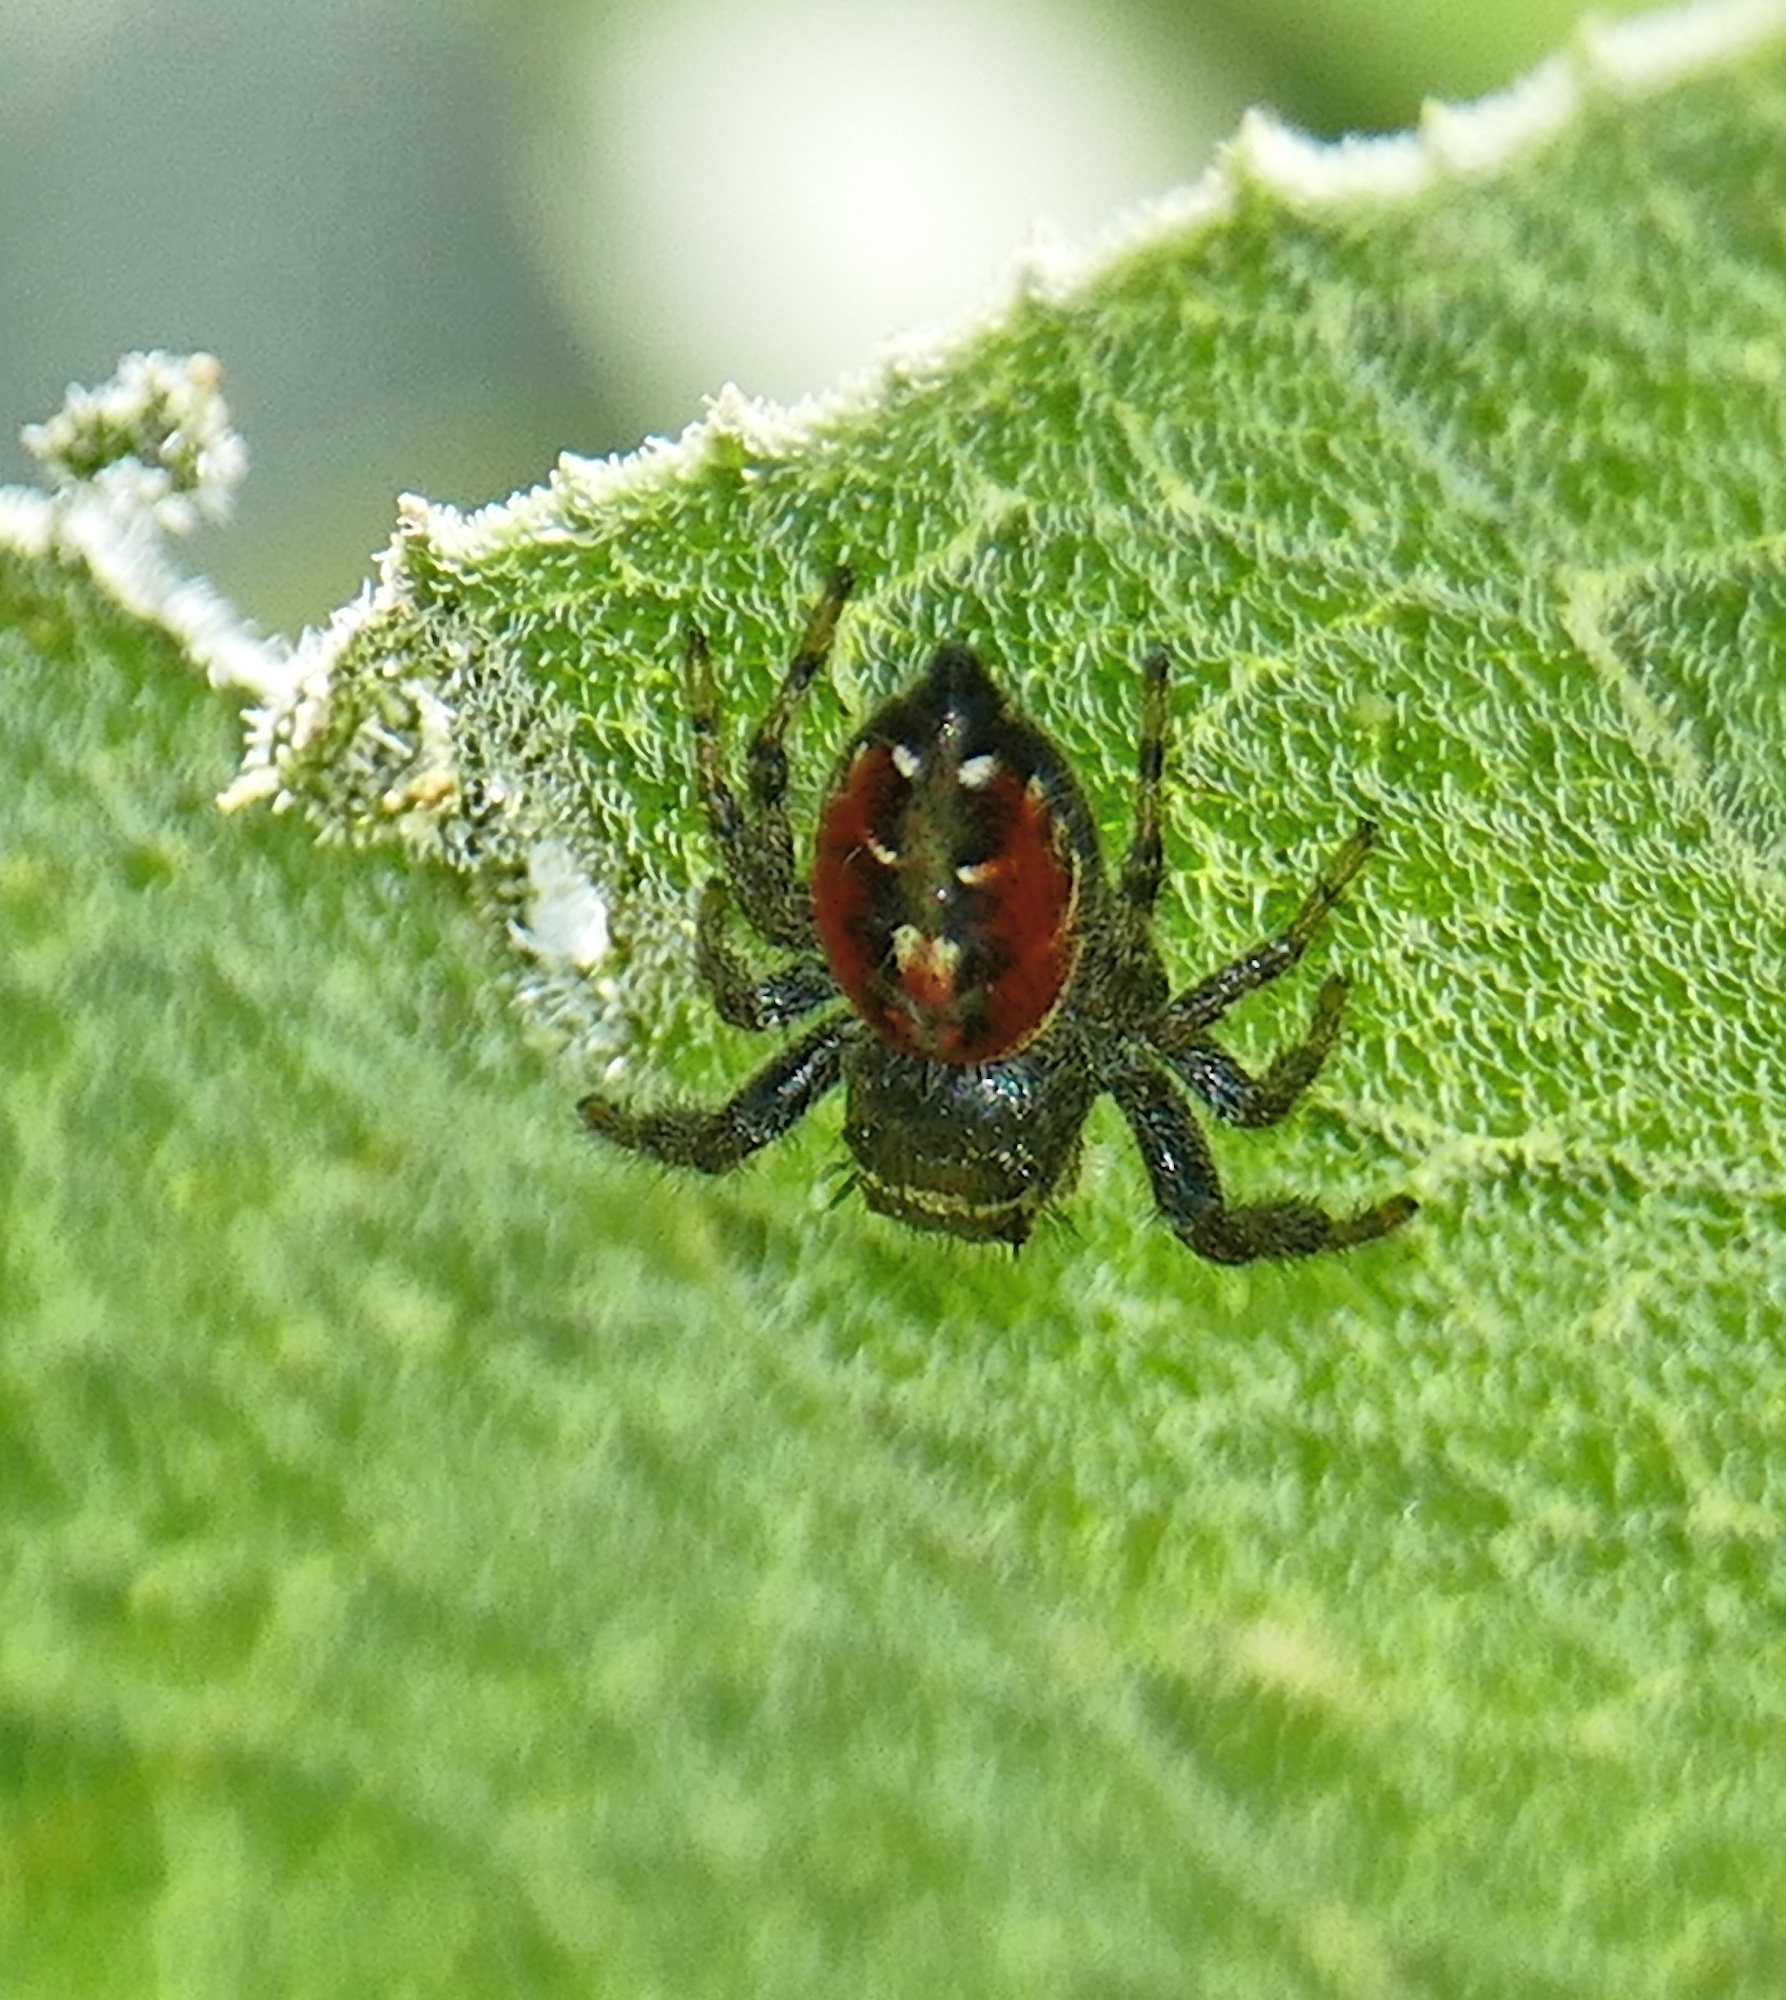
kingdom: Animalia
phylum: Arthropoda
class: Arachnida
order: Araneae
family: Salticidae
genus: Phidippus
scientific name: Phidippus carneus
